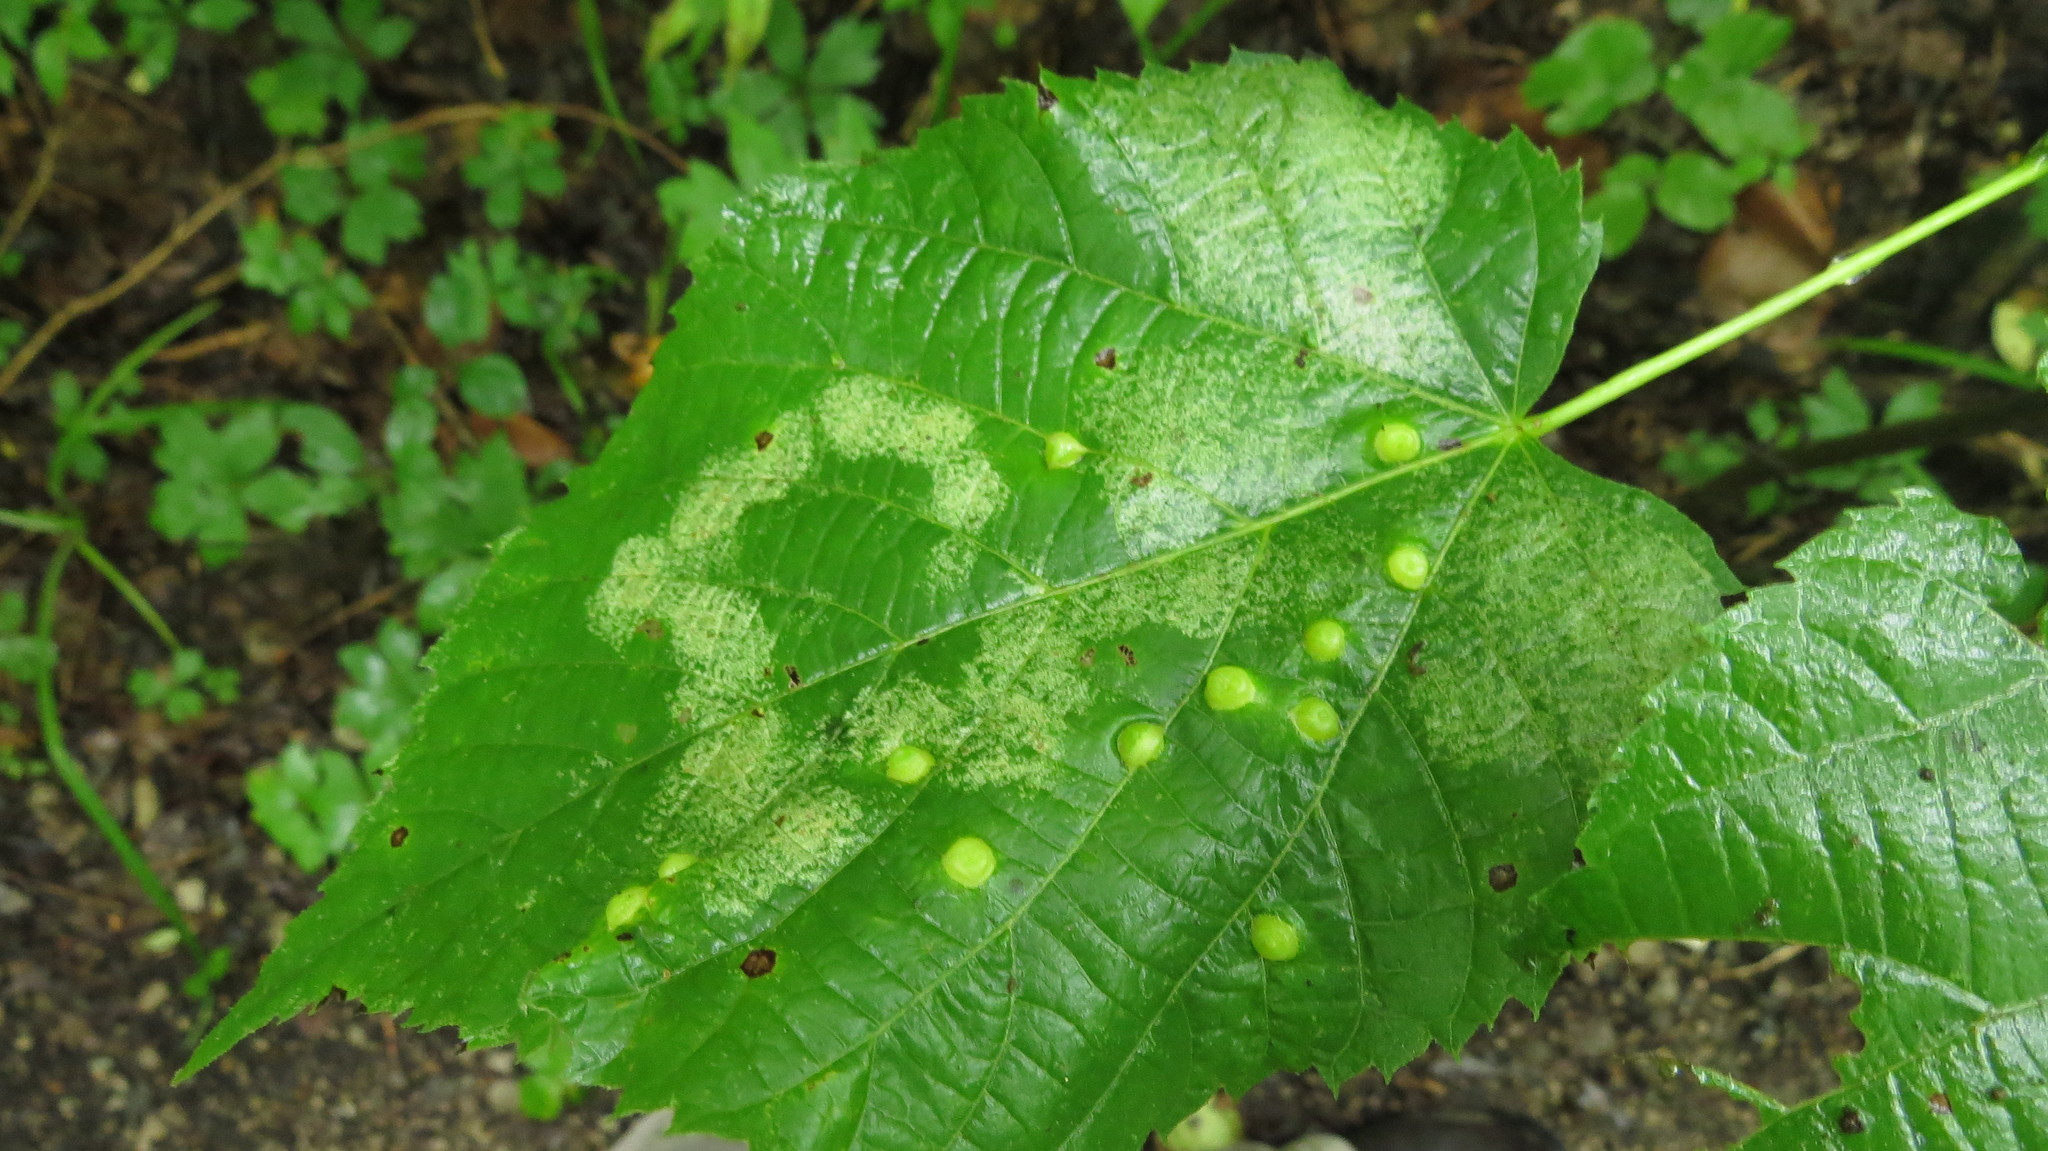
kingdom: Animalia
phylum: Arthropoda
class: Insecta
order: Hemiptera
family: Tingidae
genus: Gargaphia
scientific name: Gargaphia tiliae
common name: Basswood lace bug
